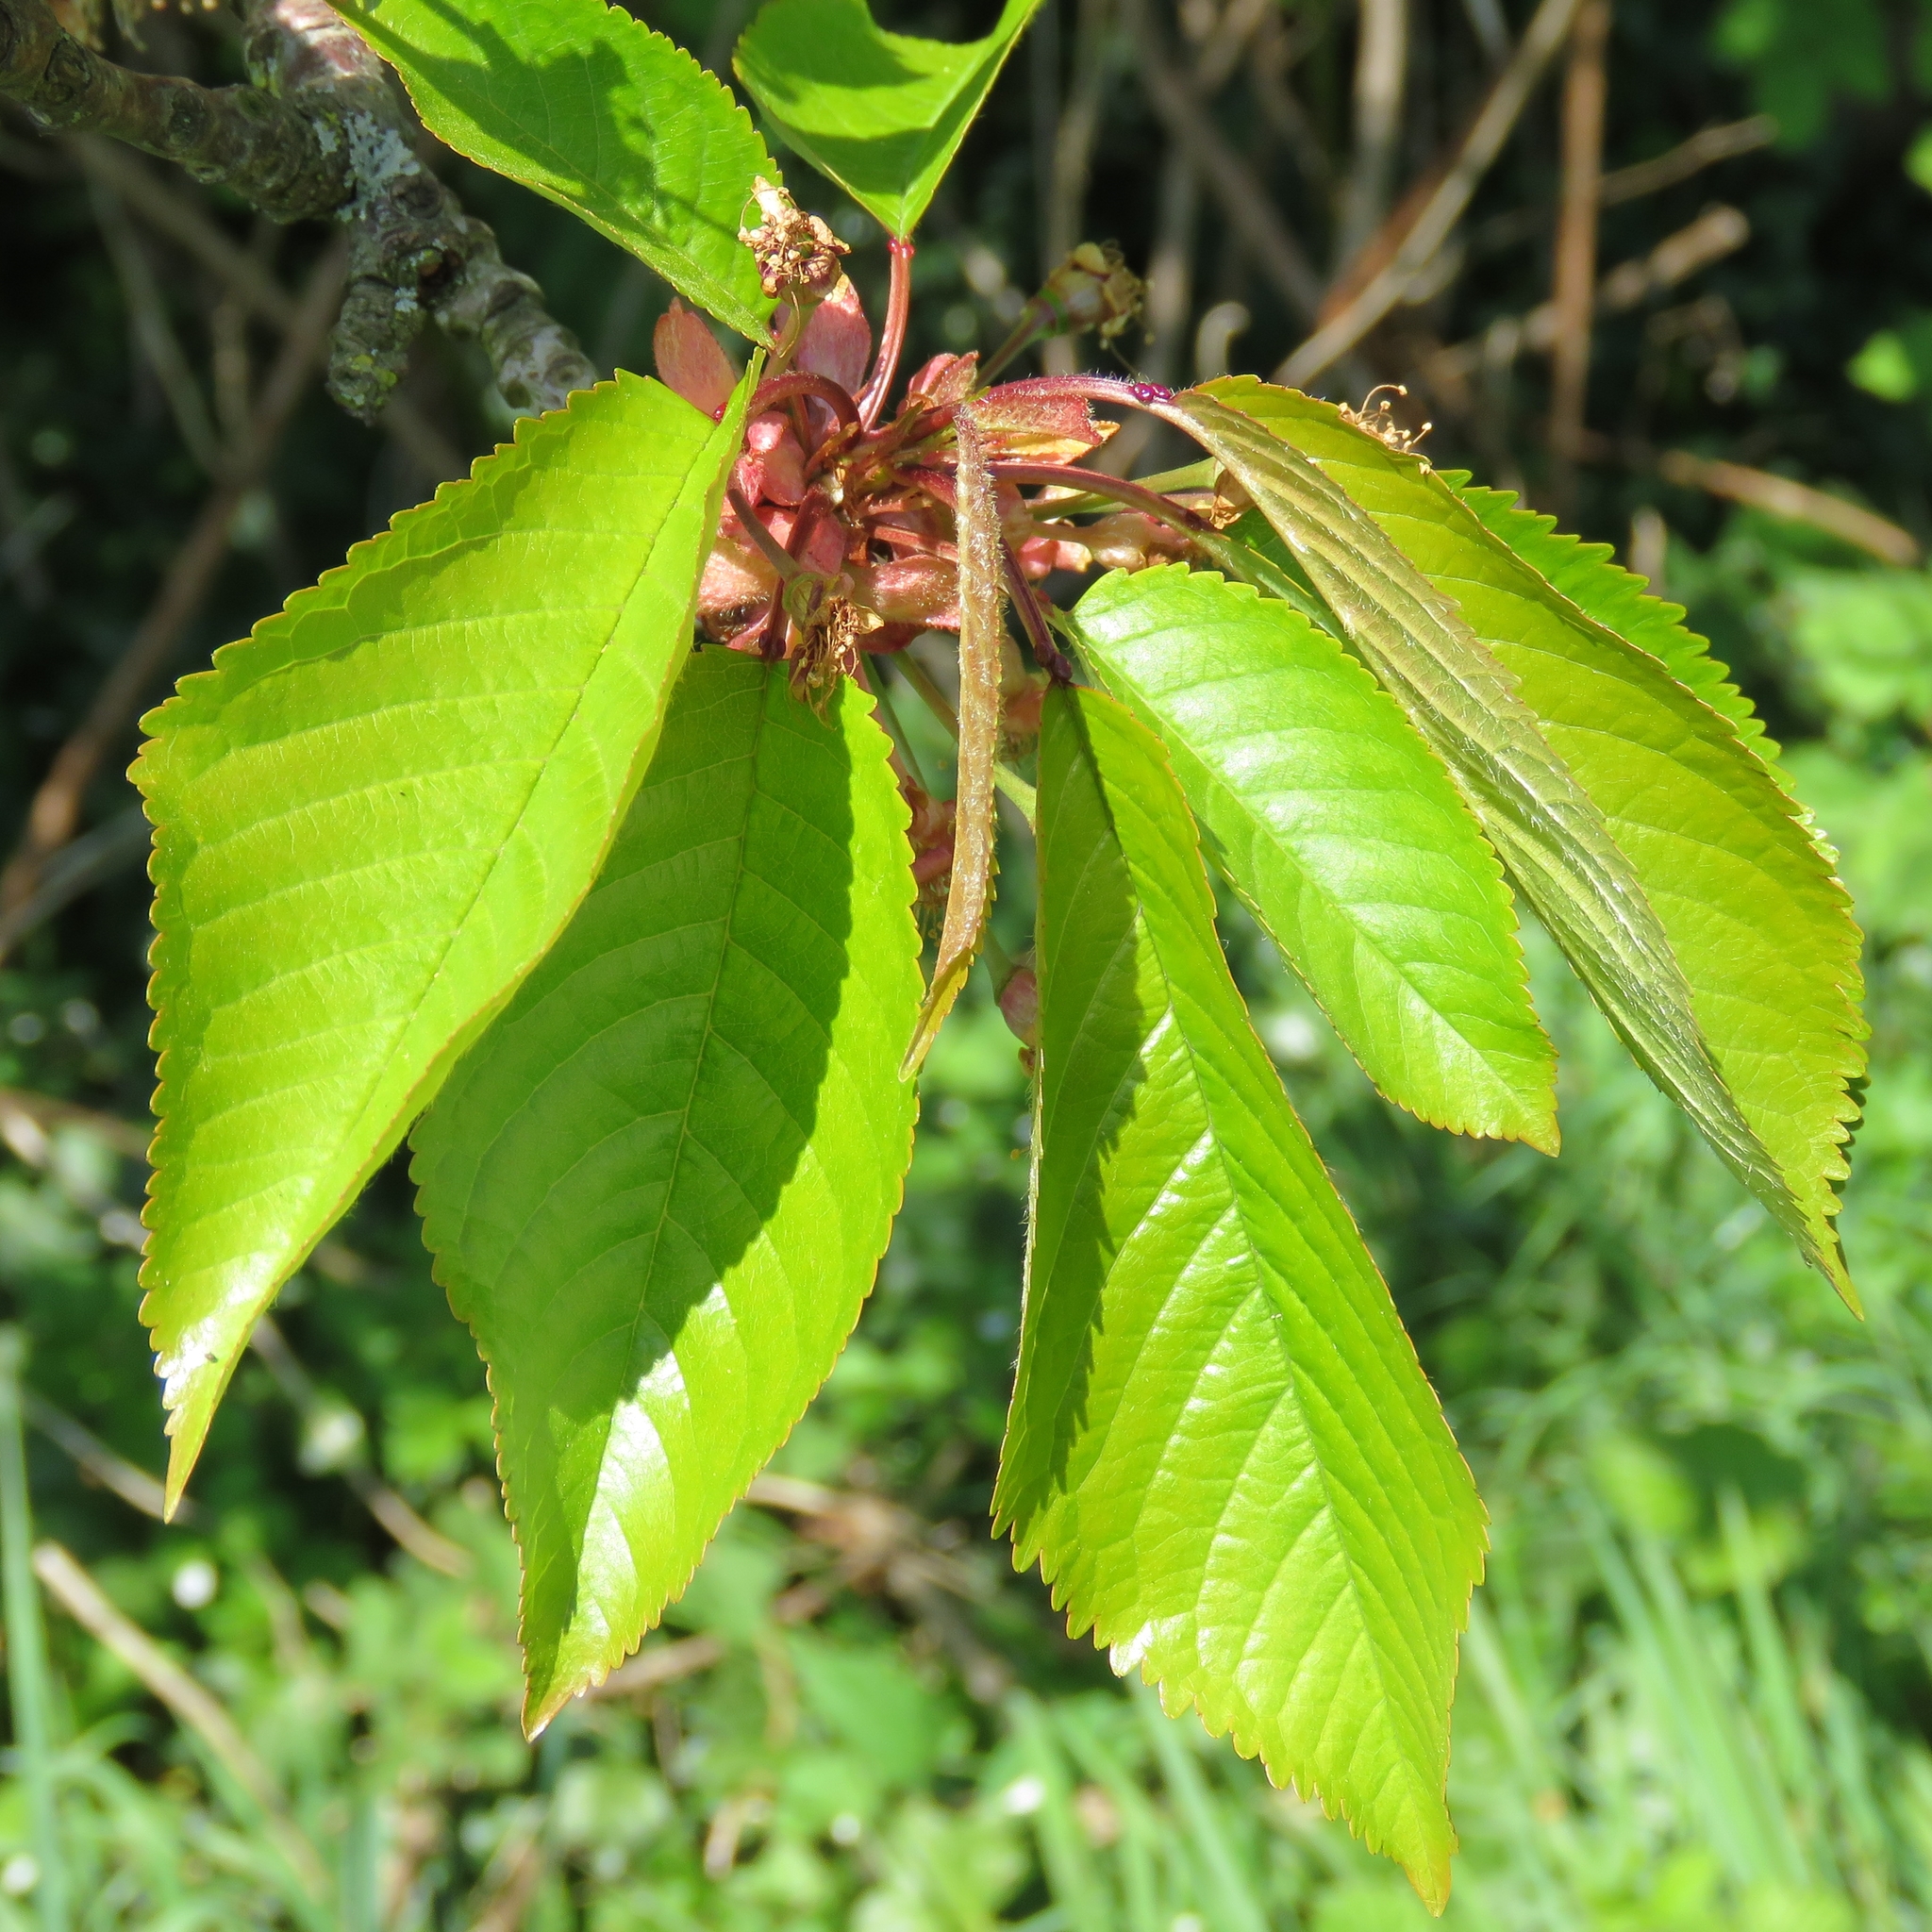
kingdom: Plantae
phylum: Tracheophyta
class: Magnoliopsida
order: Rosales
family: Rosaceae
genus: Prunus
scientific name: Prunus avium
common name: Sweet cherry
